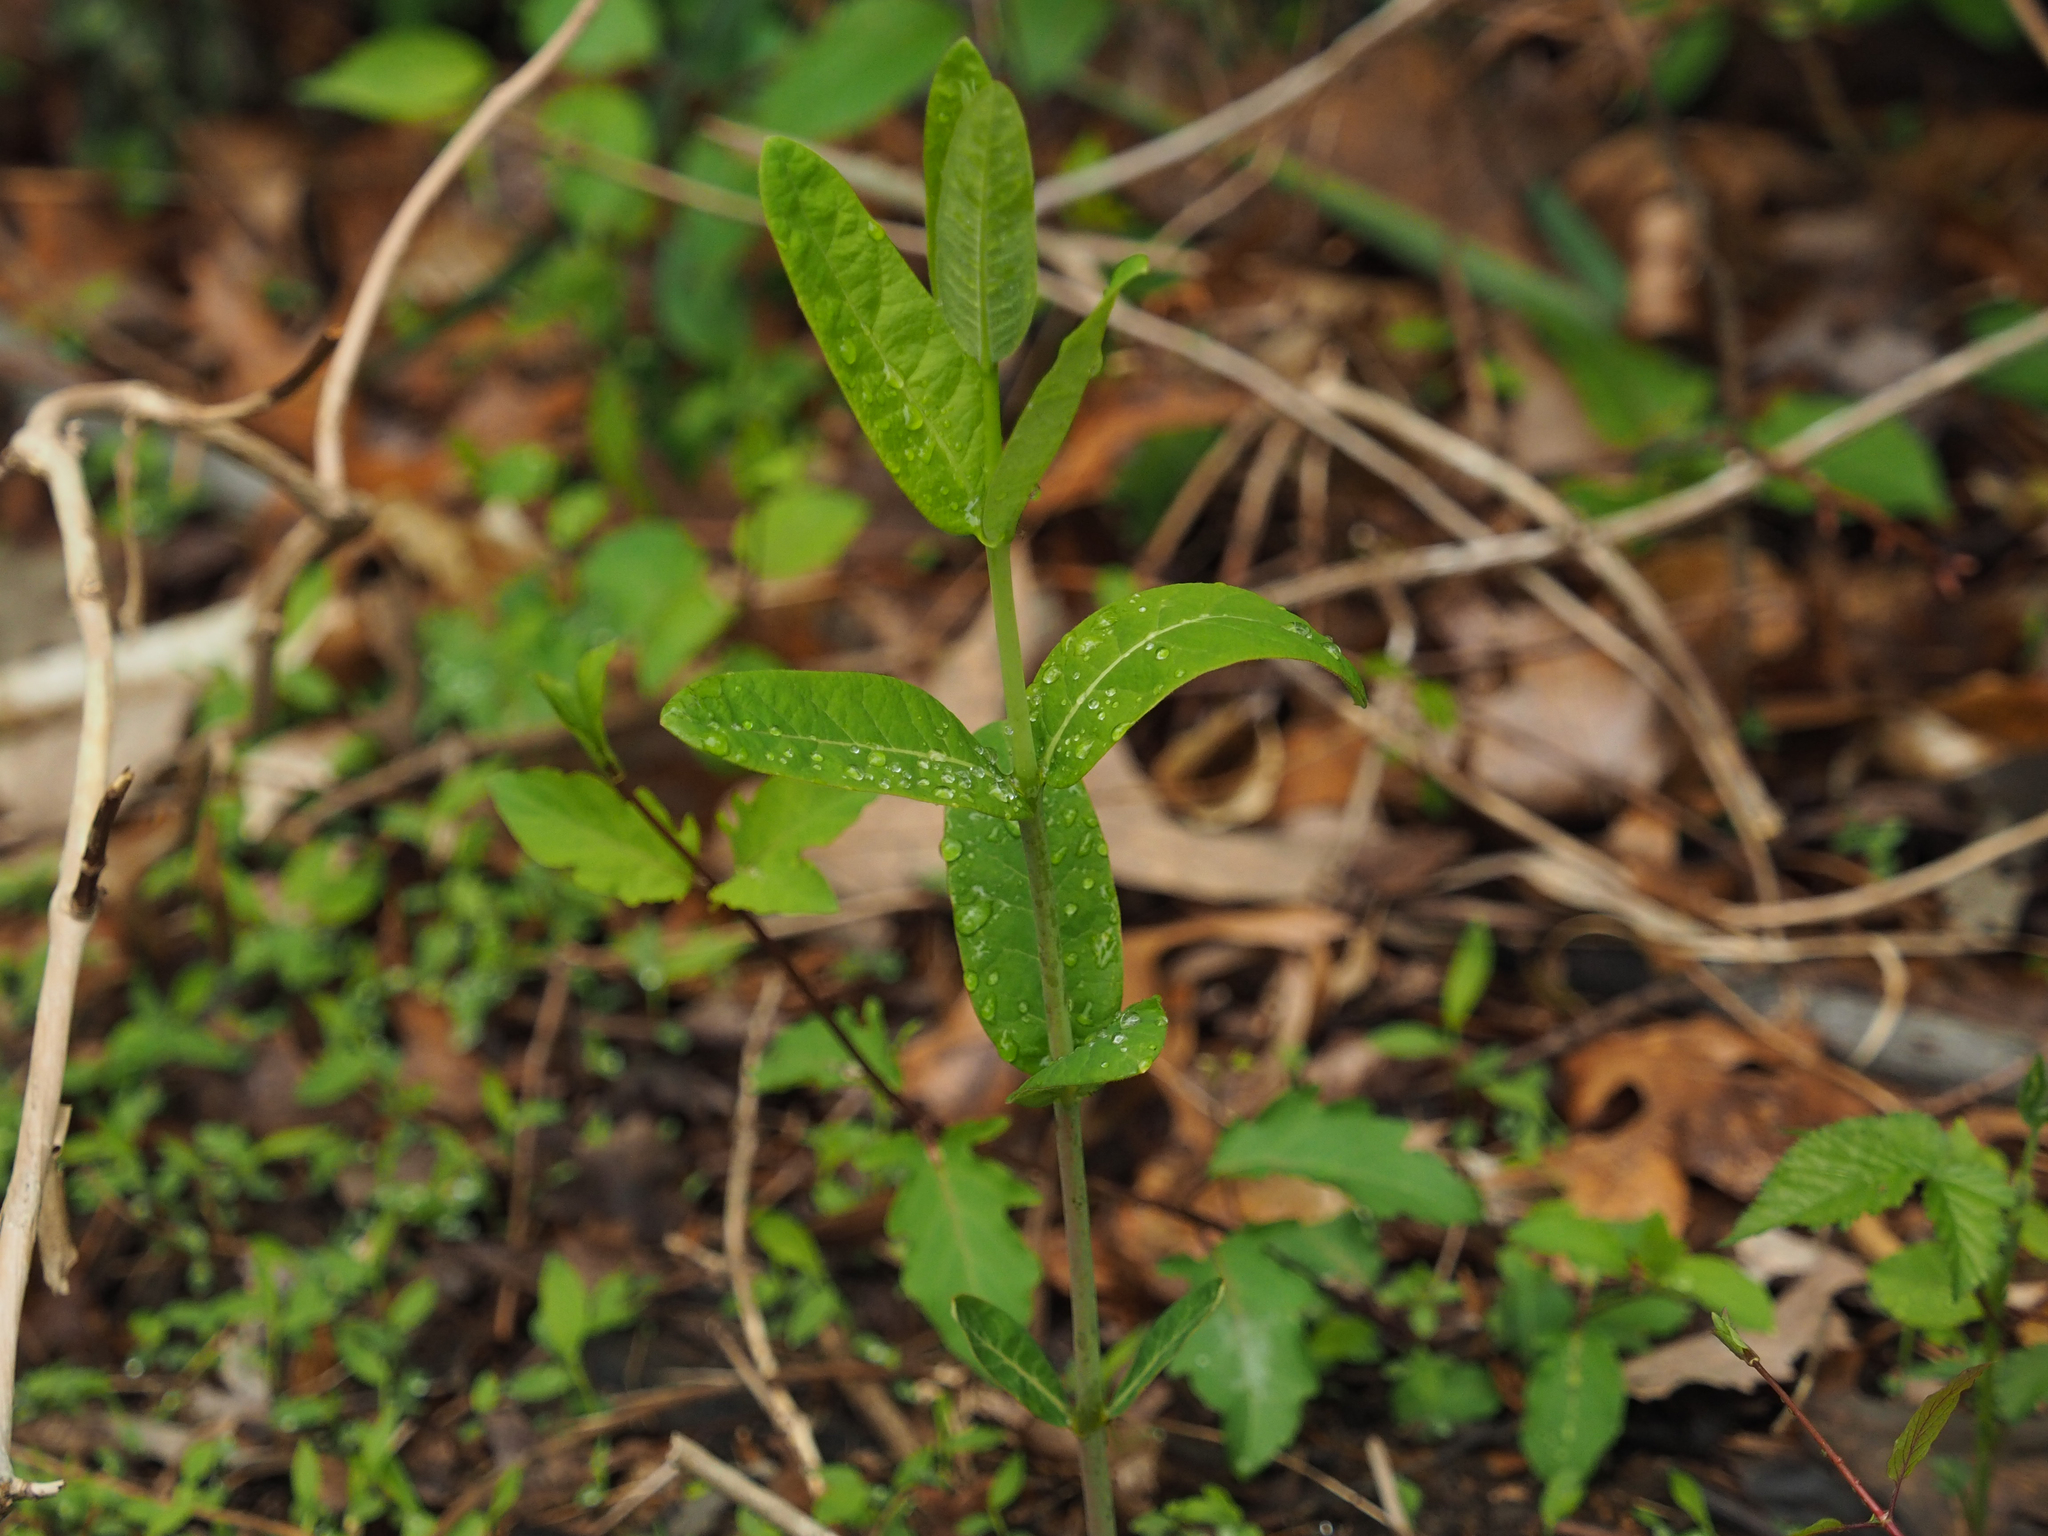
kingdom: Plantae
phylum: Tracheophyta
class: Magnoliopsida
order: Gentianales
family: Apocynaceae
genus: Apocynum
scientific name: Apocynum cannabinum
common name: Hemp dogbane
